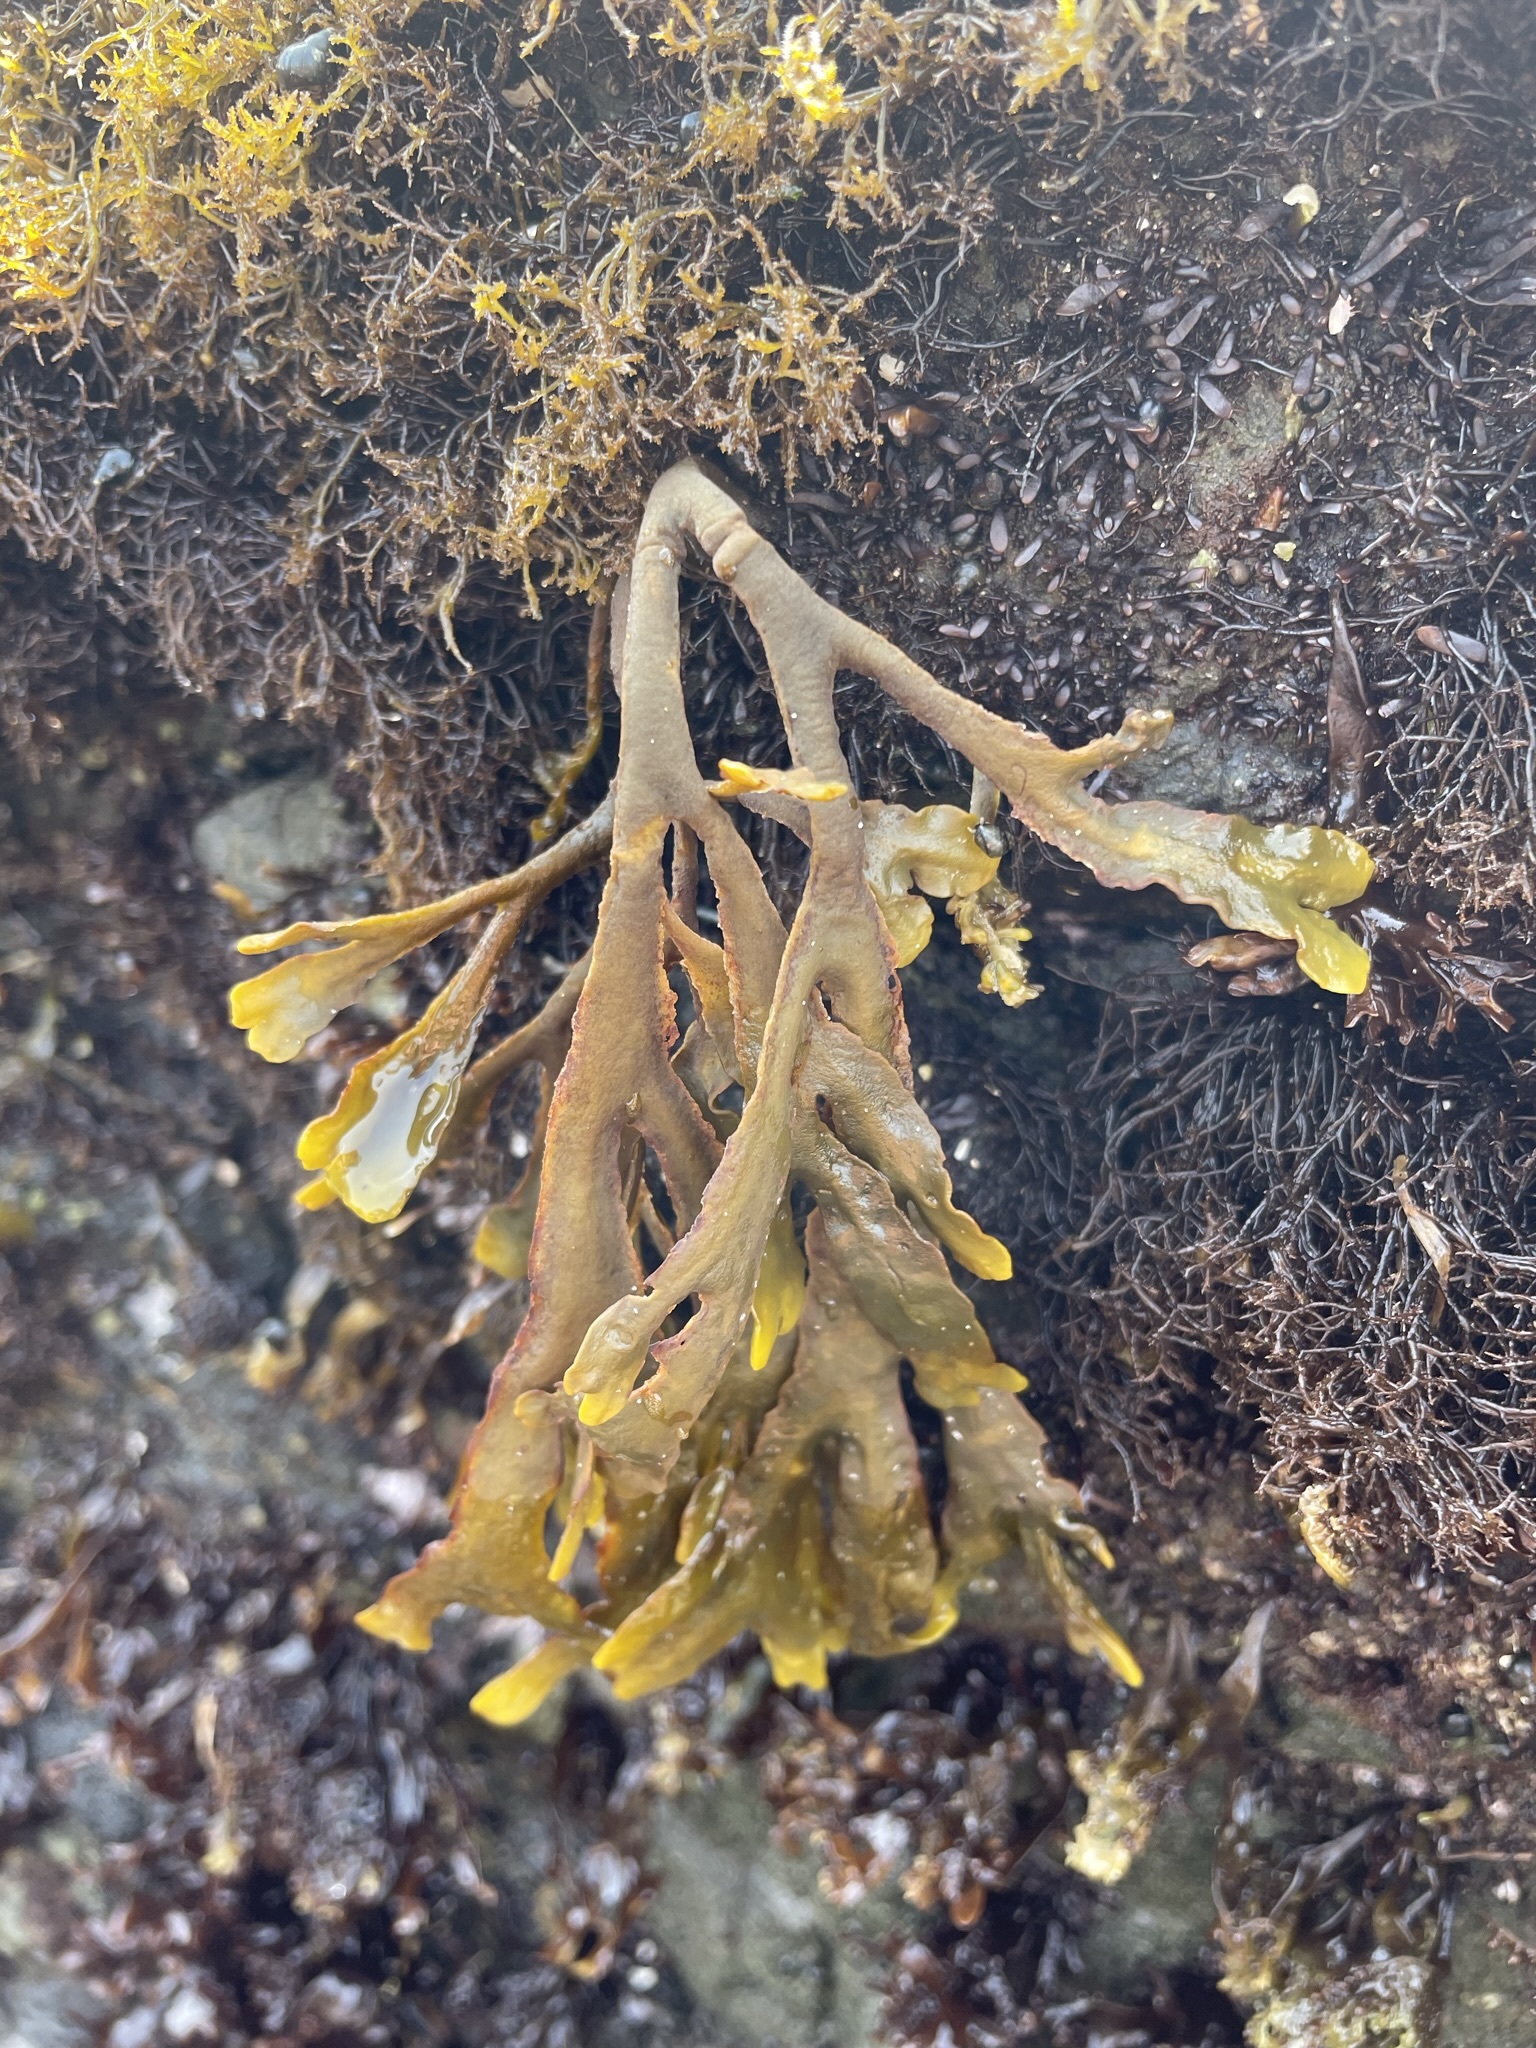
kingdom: Chromista
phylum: Ochrophyta
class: Phaeophyceae
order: Fucales
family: Fucaceae
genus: Pelvetiopsis
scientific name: Pelvetiopsis
